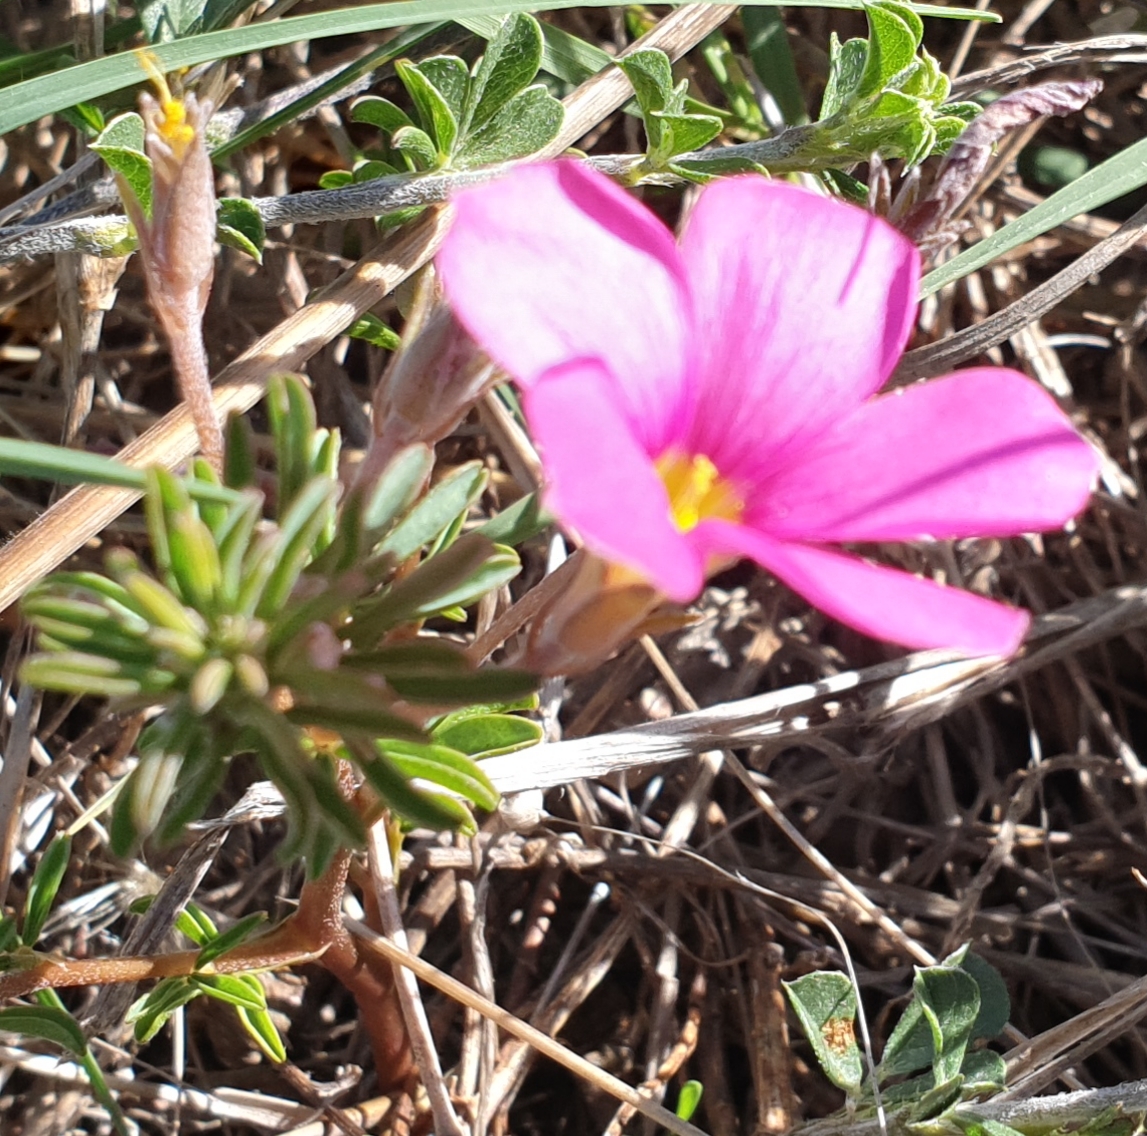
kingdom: Plantae
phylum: Tracheophyta
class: Magnoliopsida
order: Oxalidales
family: Oxalidaceae
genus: Oxalis
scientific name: Oxalis hirta
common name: Tropical woodsorrel
